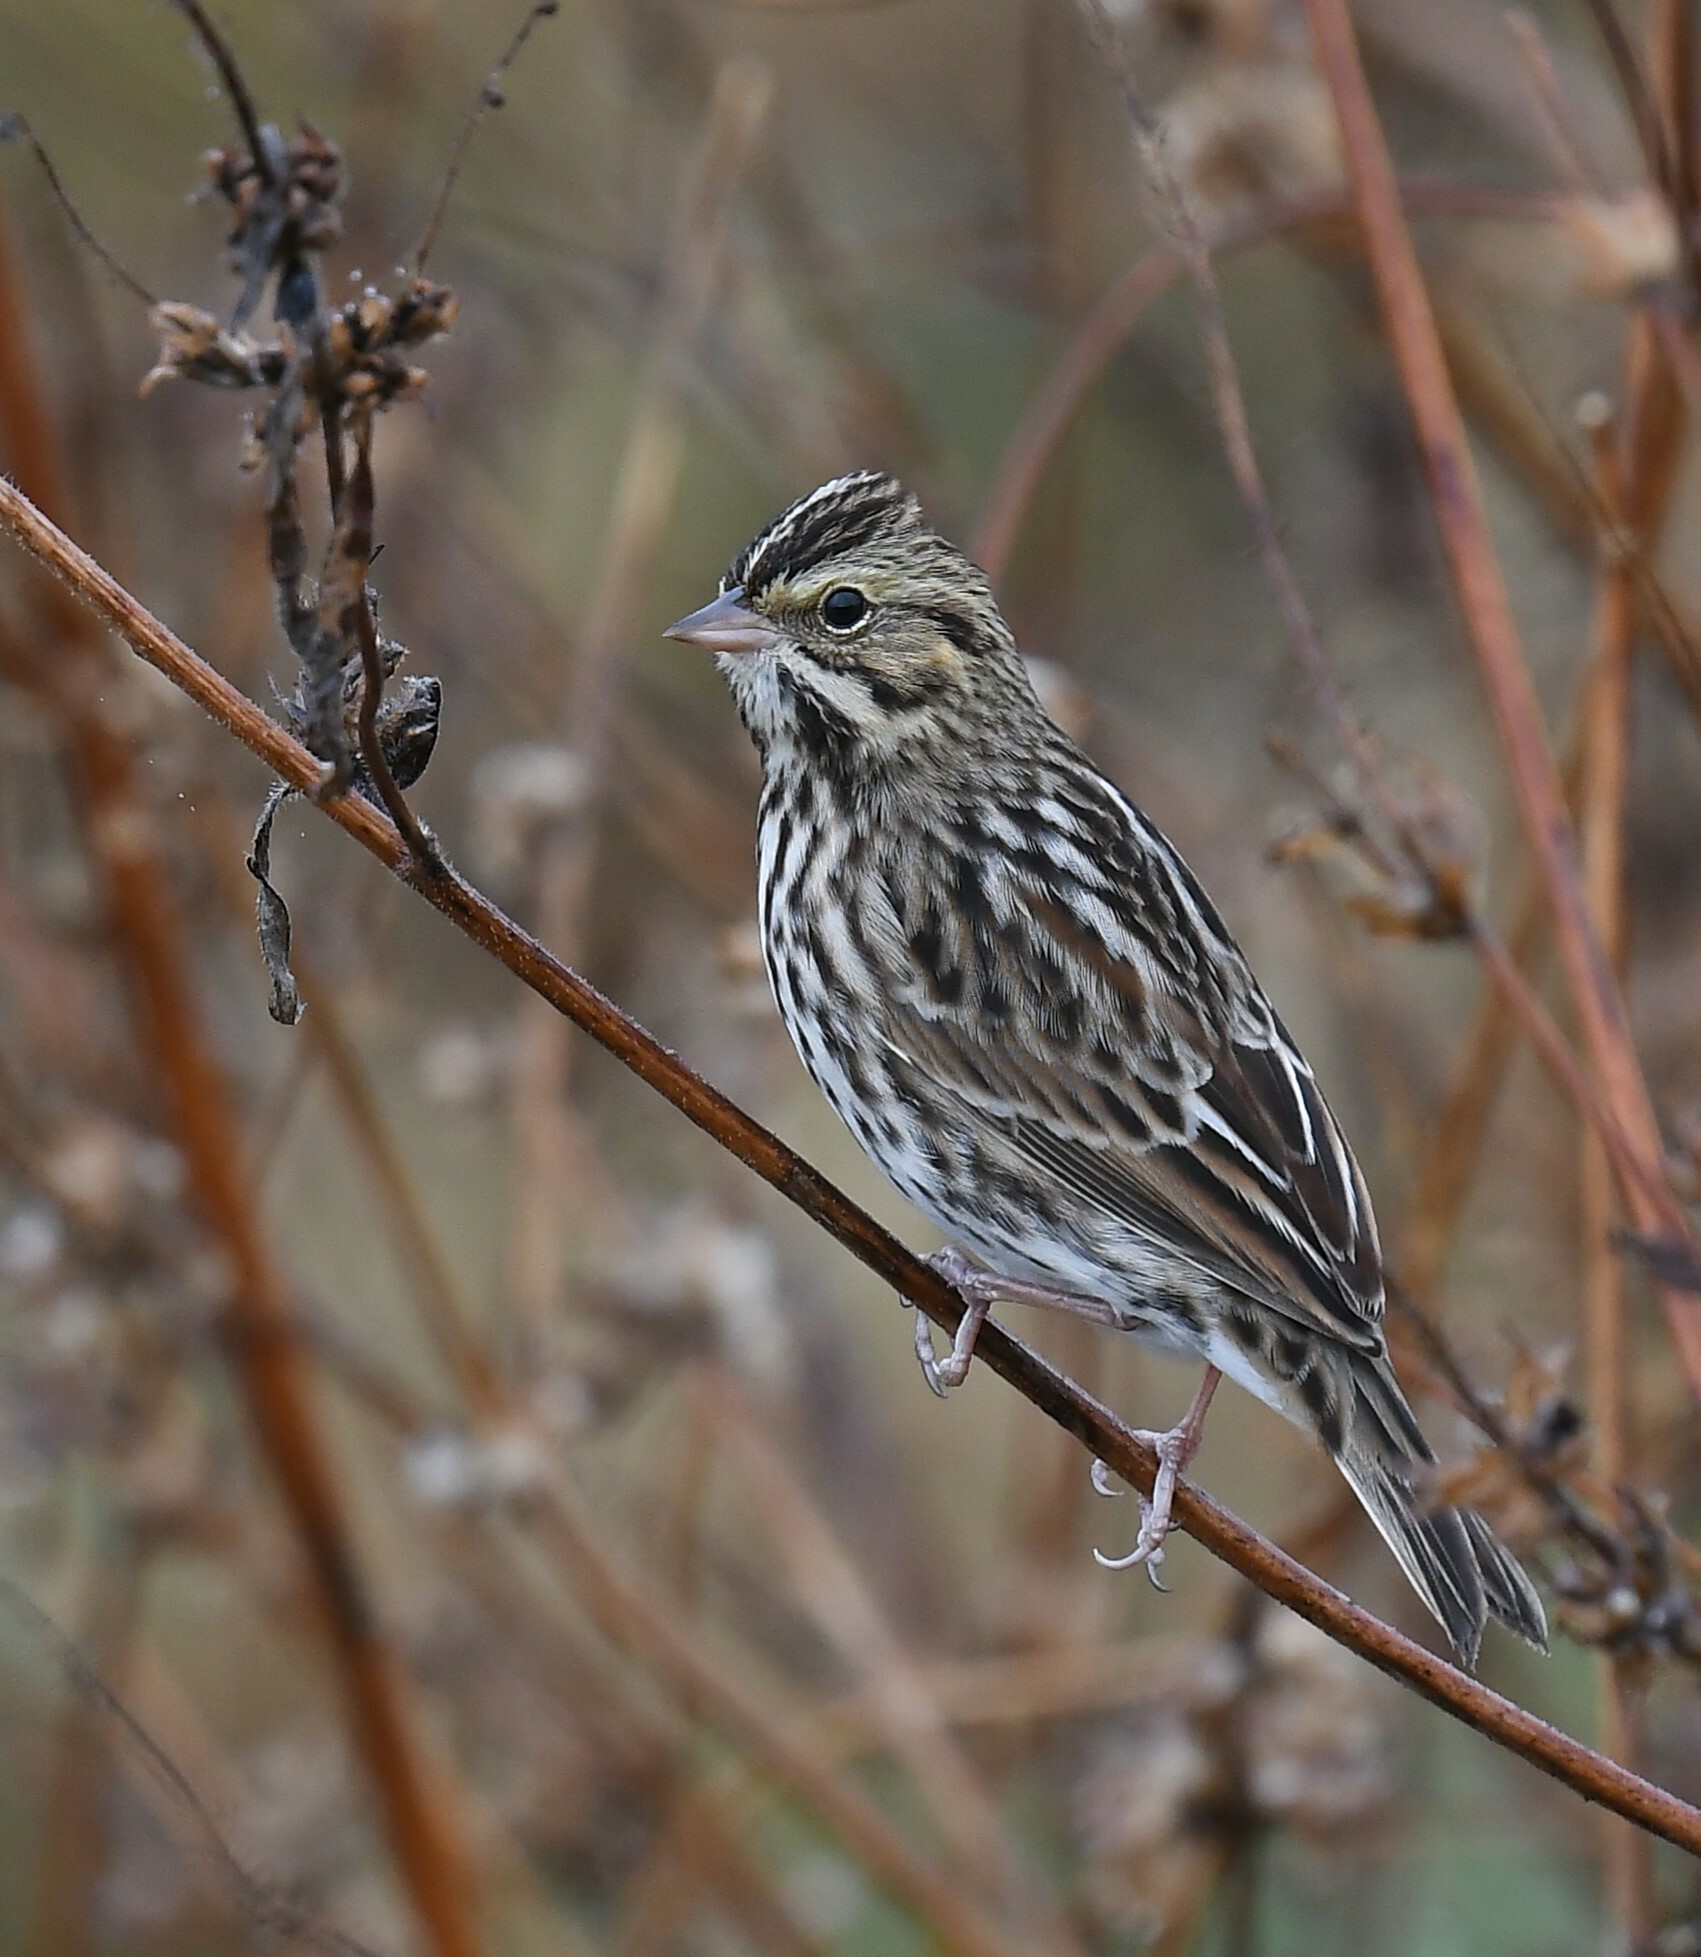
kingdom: Animalia
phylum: Chordata
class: Aves
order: Passeriformes
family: Passerellidae
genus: Passerculus
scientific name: Passerculus sandwichensis
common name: Savannah sparrow
